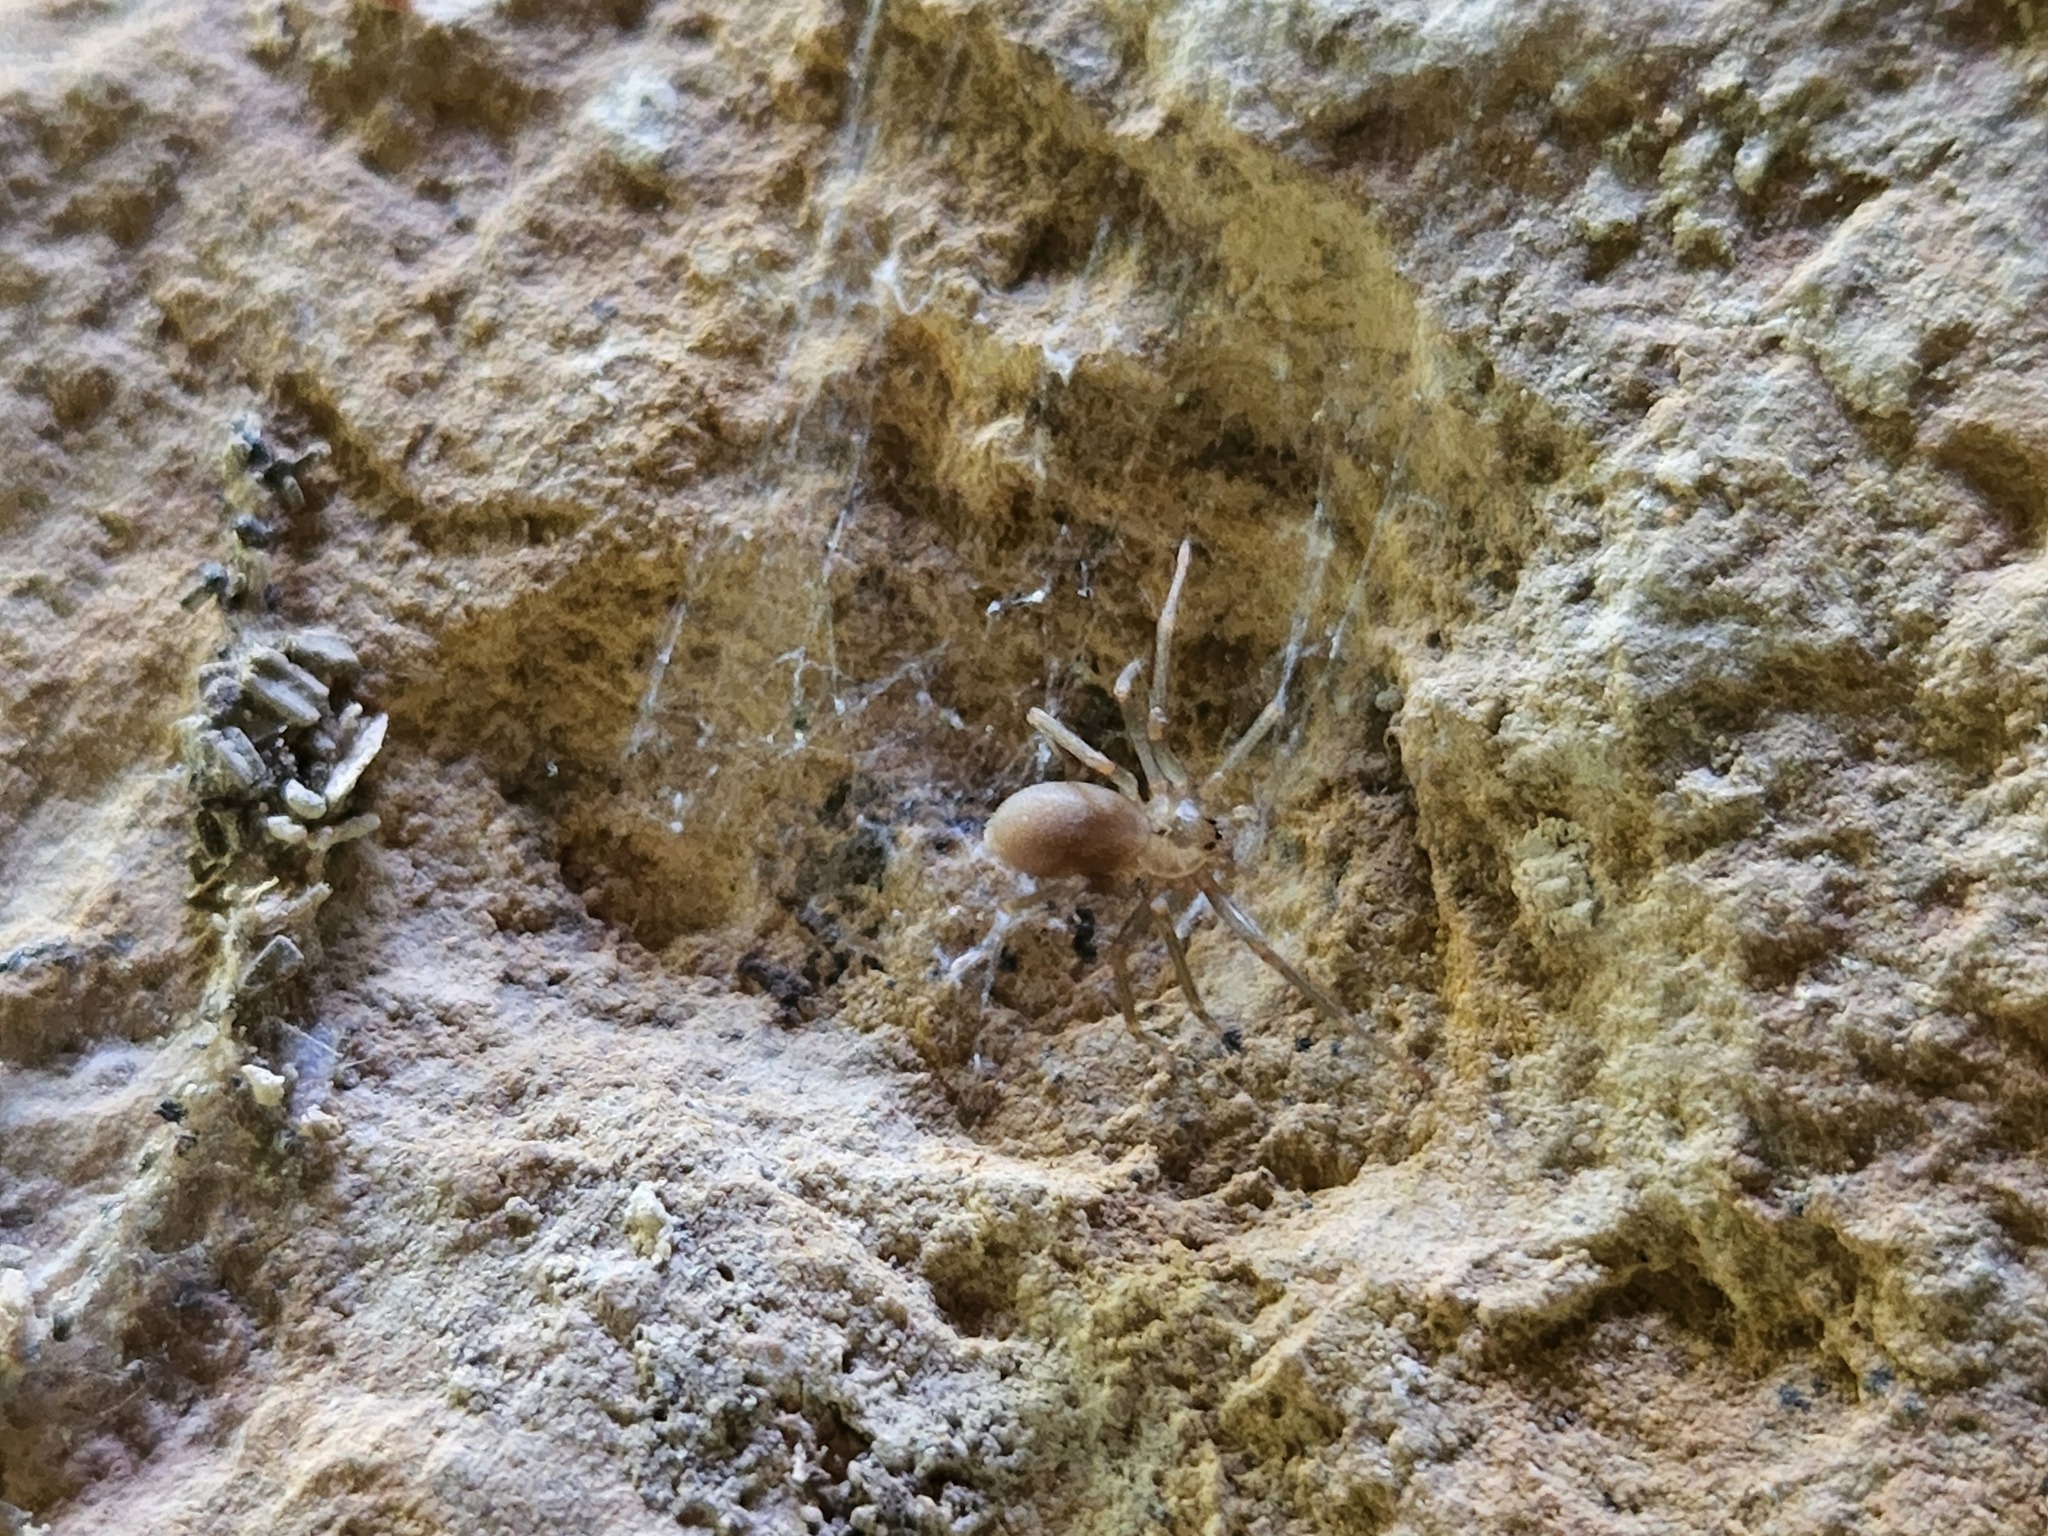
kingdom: Animalia
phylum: Arthropoda
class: Arachnida
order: Araneae
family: Sicariidae
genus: Loxosceles
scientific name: Loxosceles reclusa
